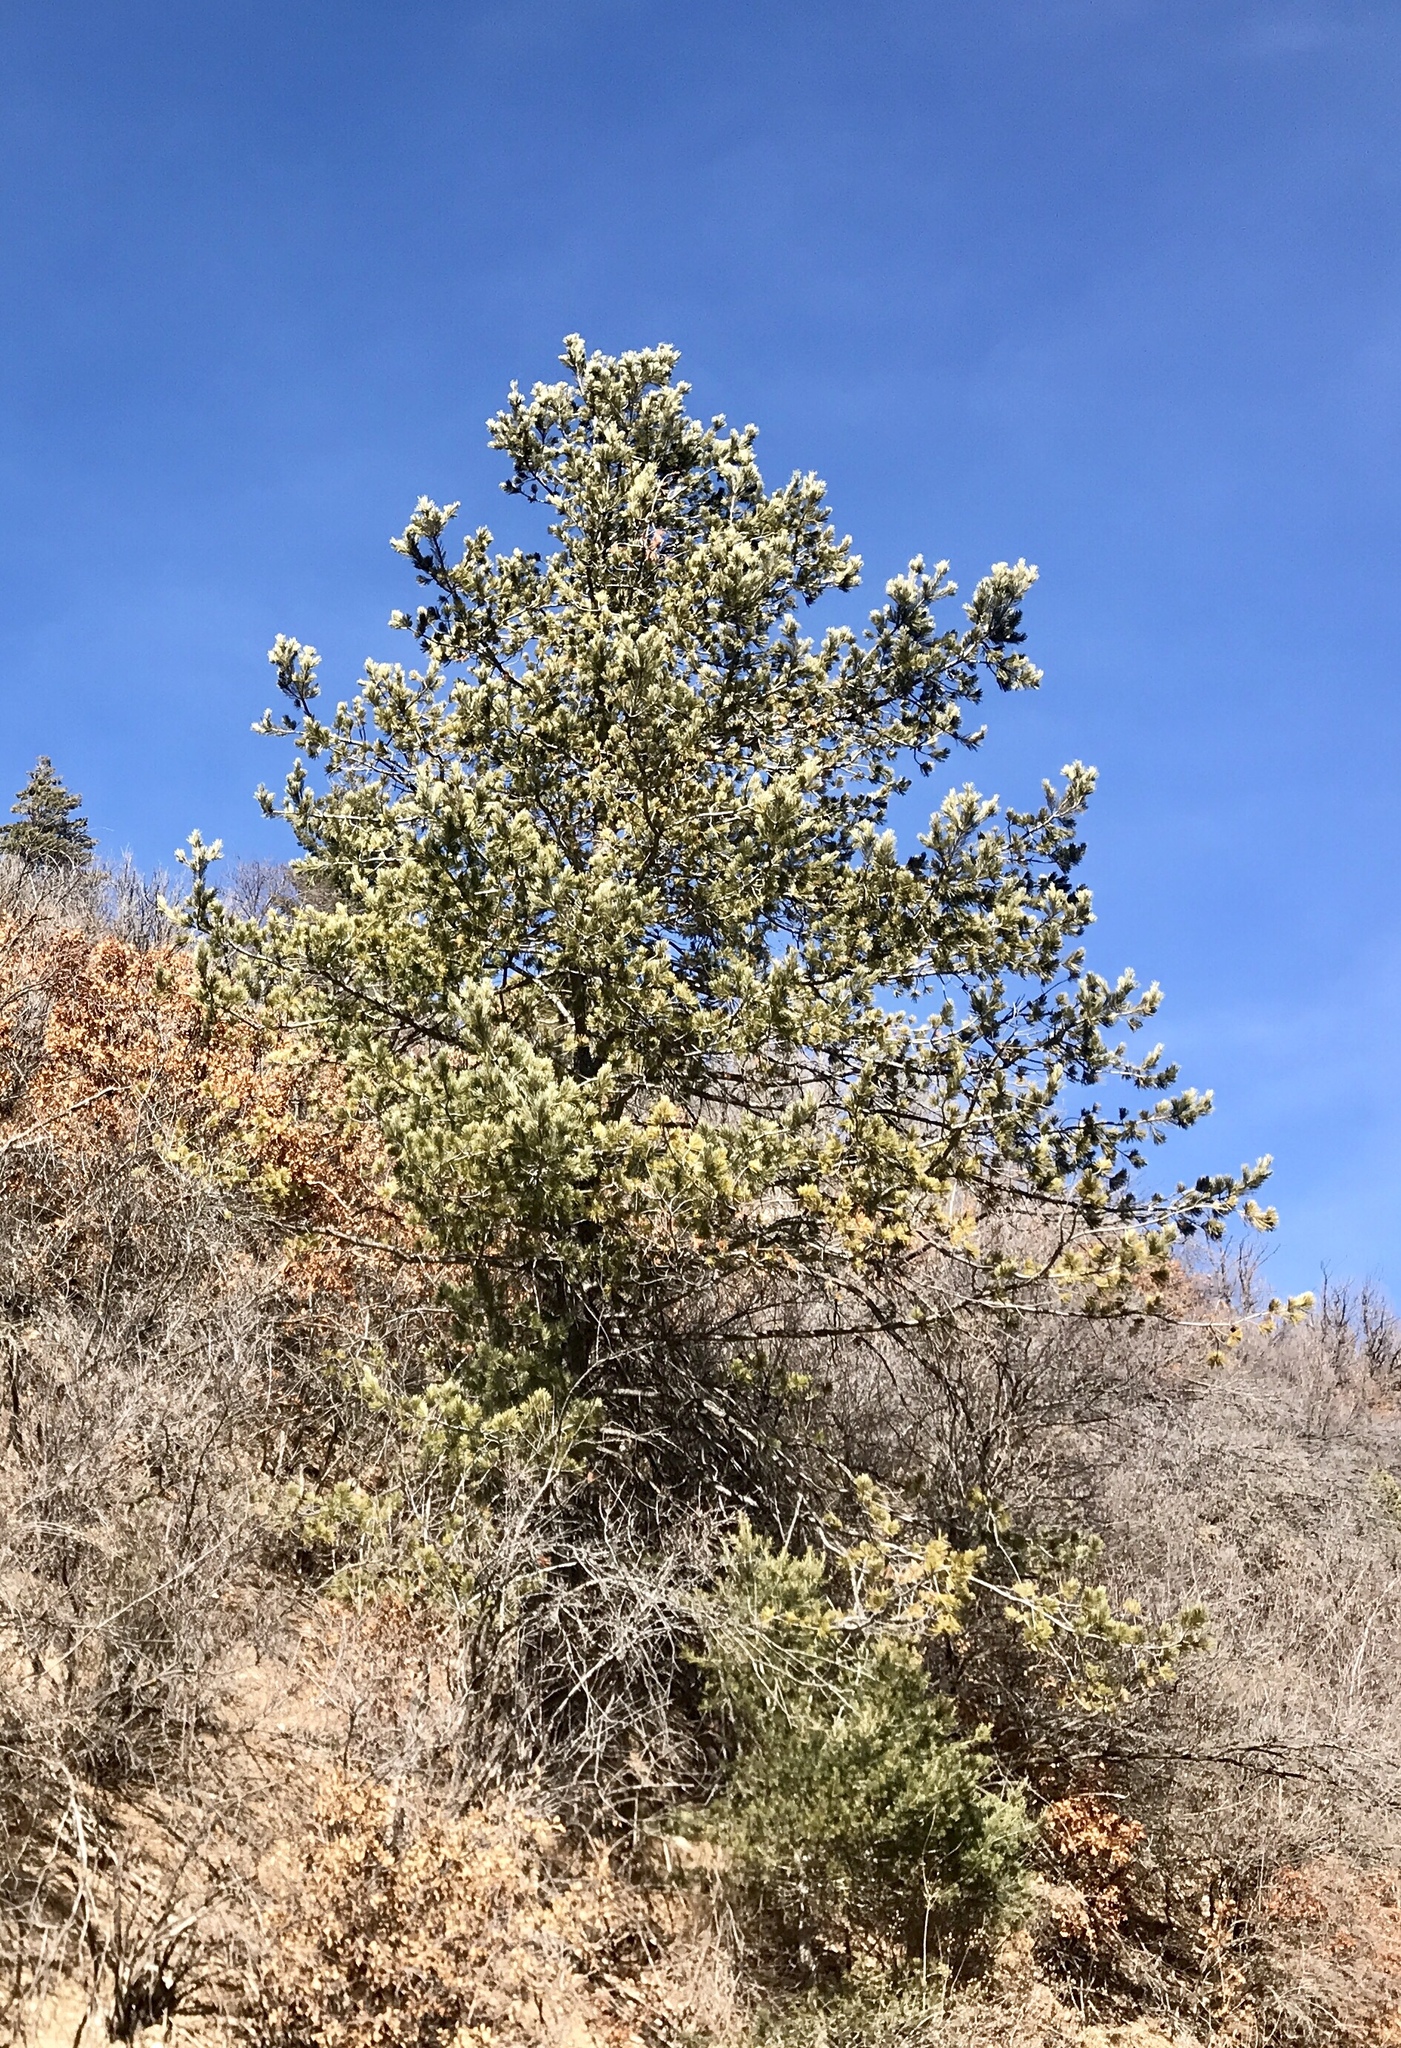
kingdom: Plantae
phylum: Tracheophyta
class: Pinopsida
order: Pinales
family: Pinaceae
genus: Pinus
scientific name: Pinus strobiformis
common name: Southwestern white pine
